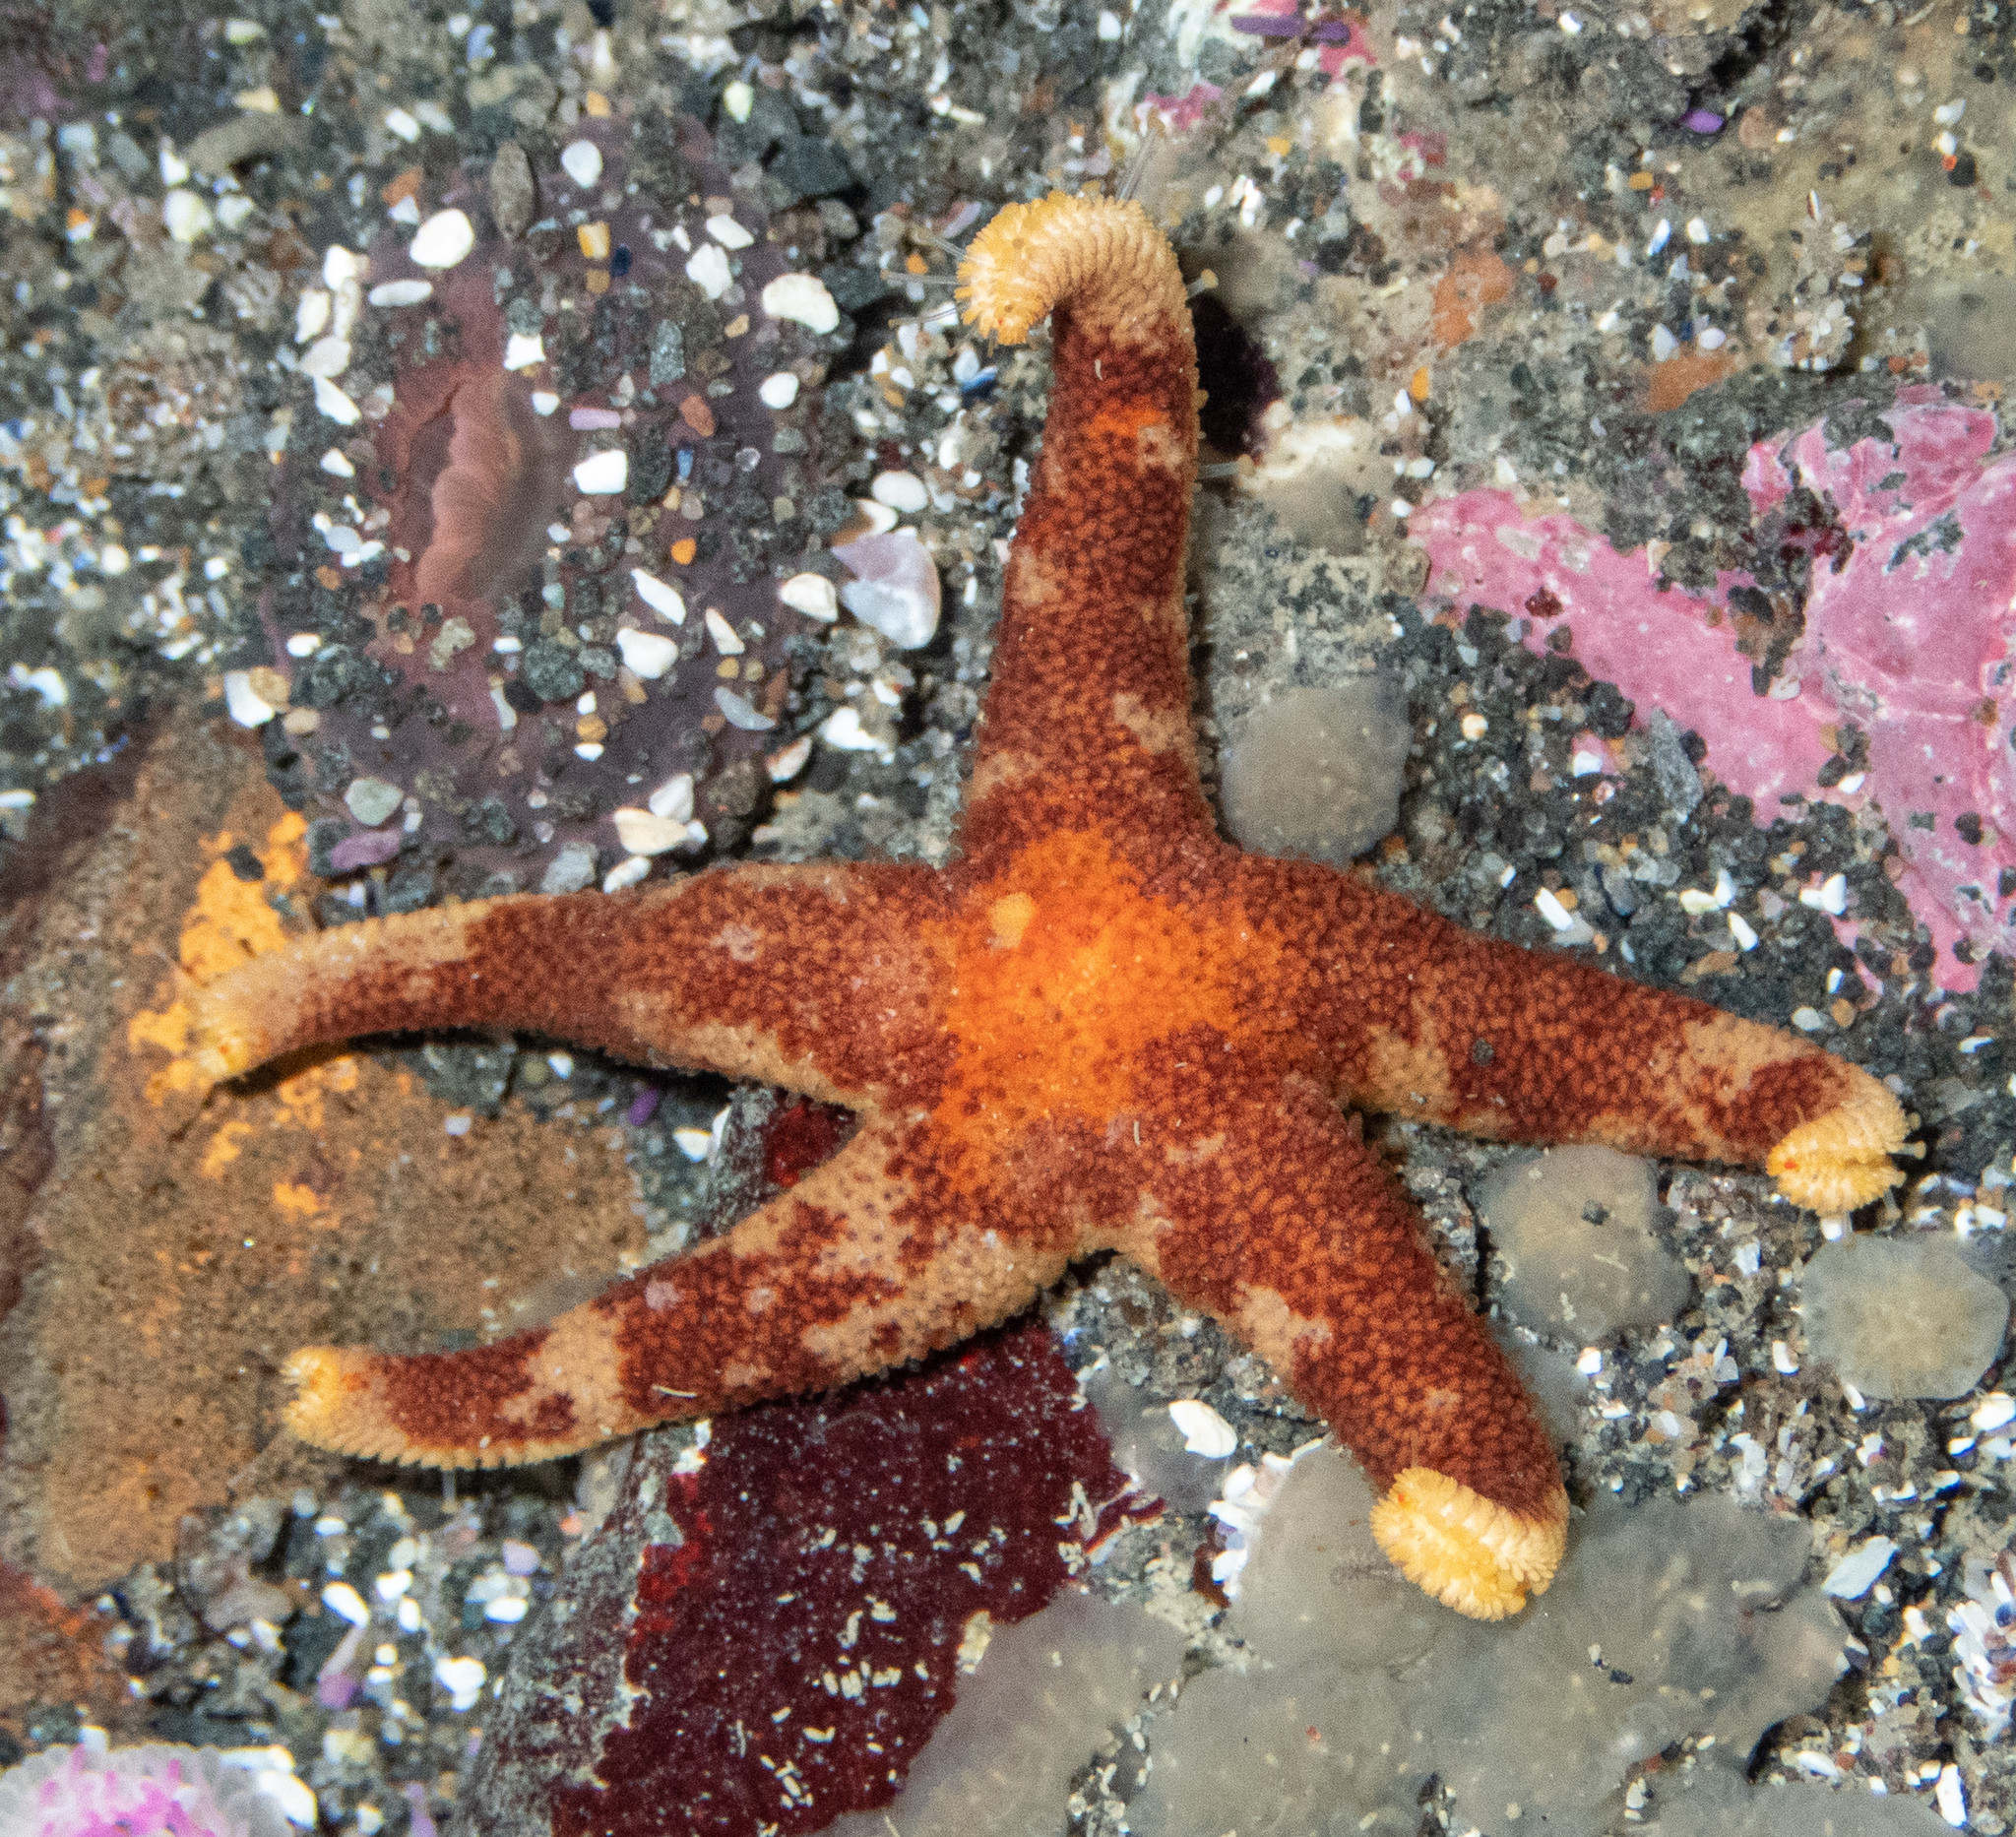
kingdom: Animalia
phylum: Echinodermata
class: Asteroidea
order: Spinulosida
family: Echinasteridae
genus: Henricia
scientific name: Henricia pumila
